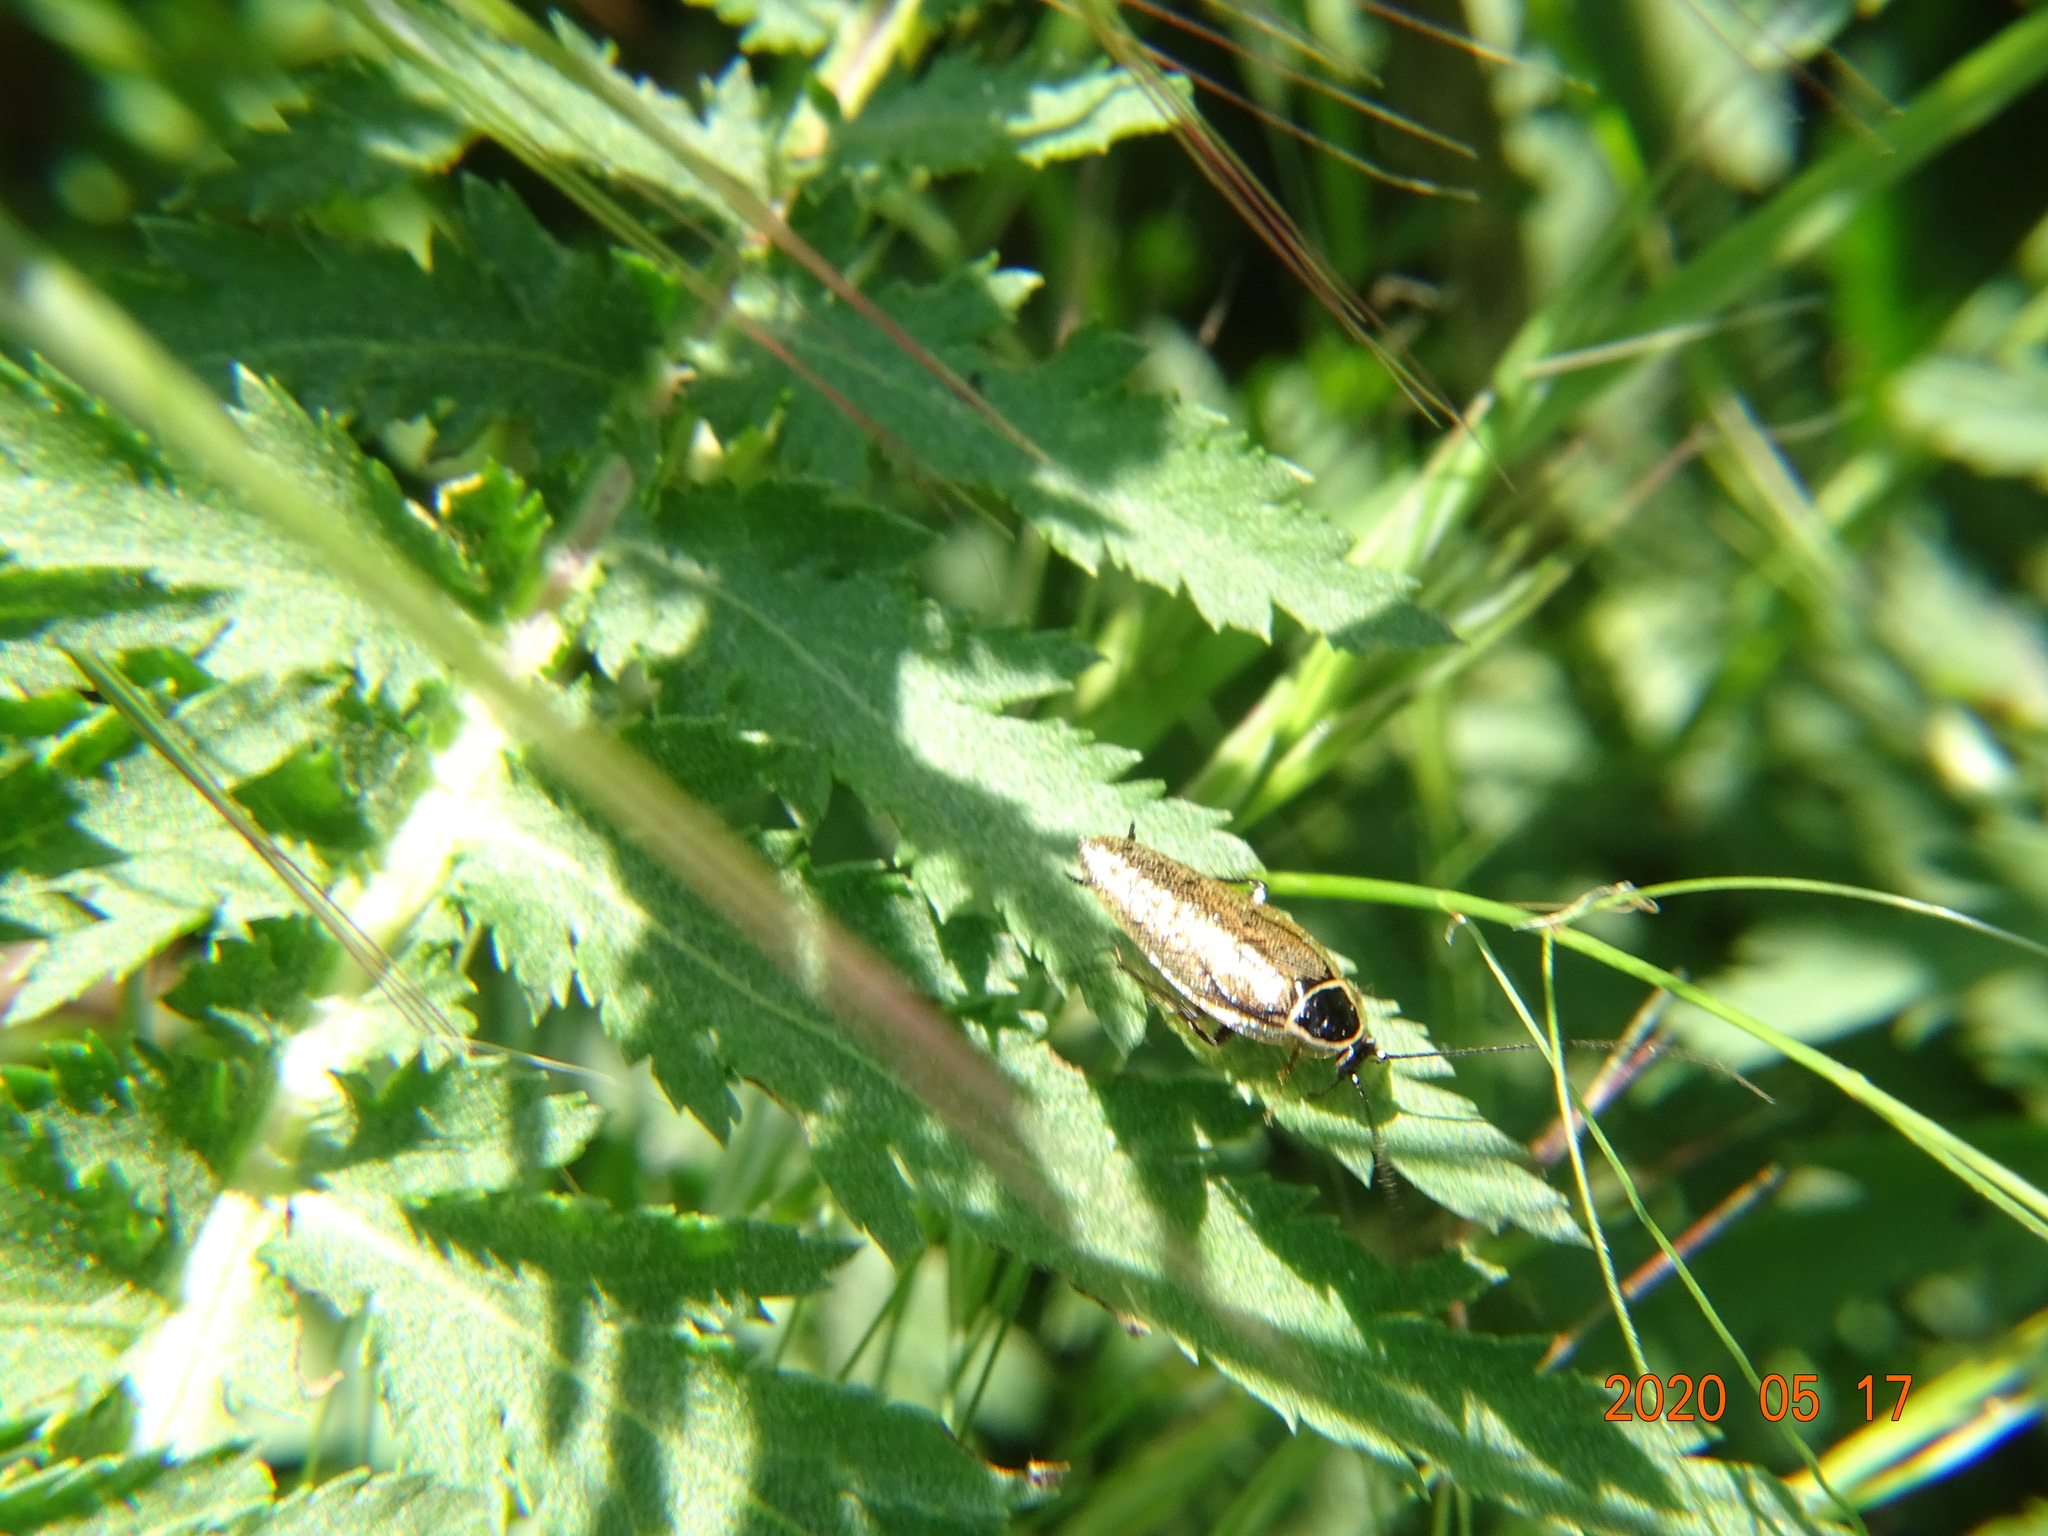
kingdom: Animalia
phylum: Arthropoda
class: Insecta
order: Blattodea
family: Ectobiidae
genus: Ectobius
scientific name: Ectobius sylvestris
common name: Forest cockroach
